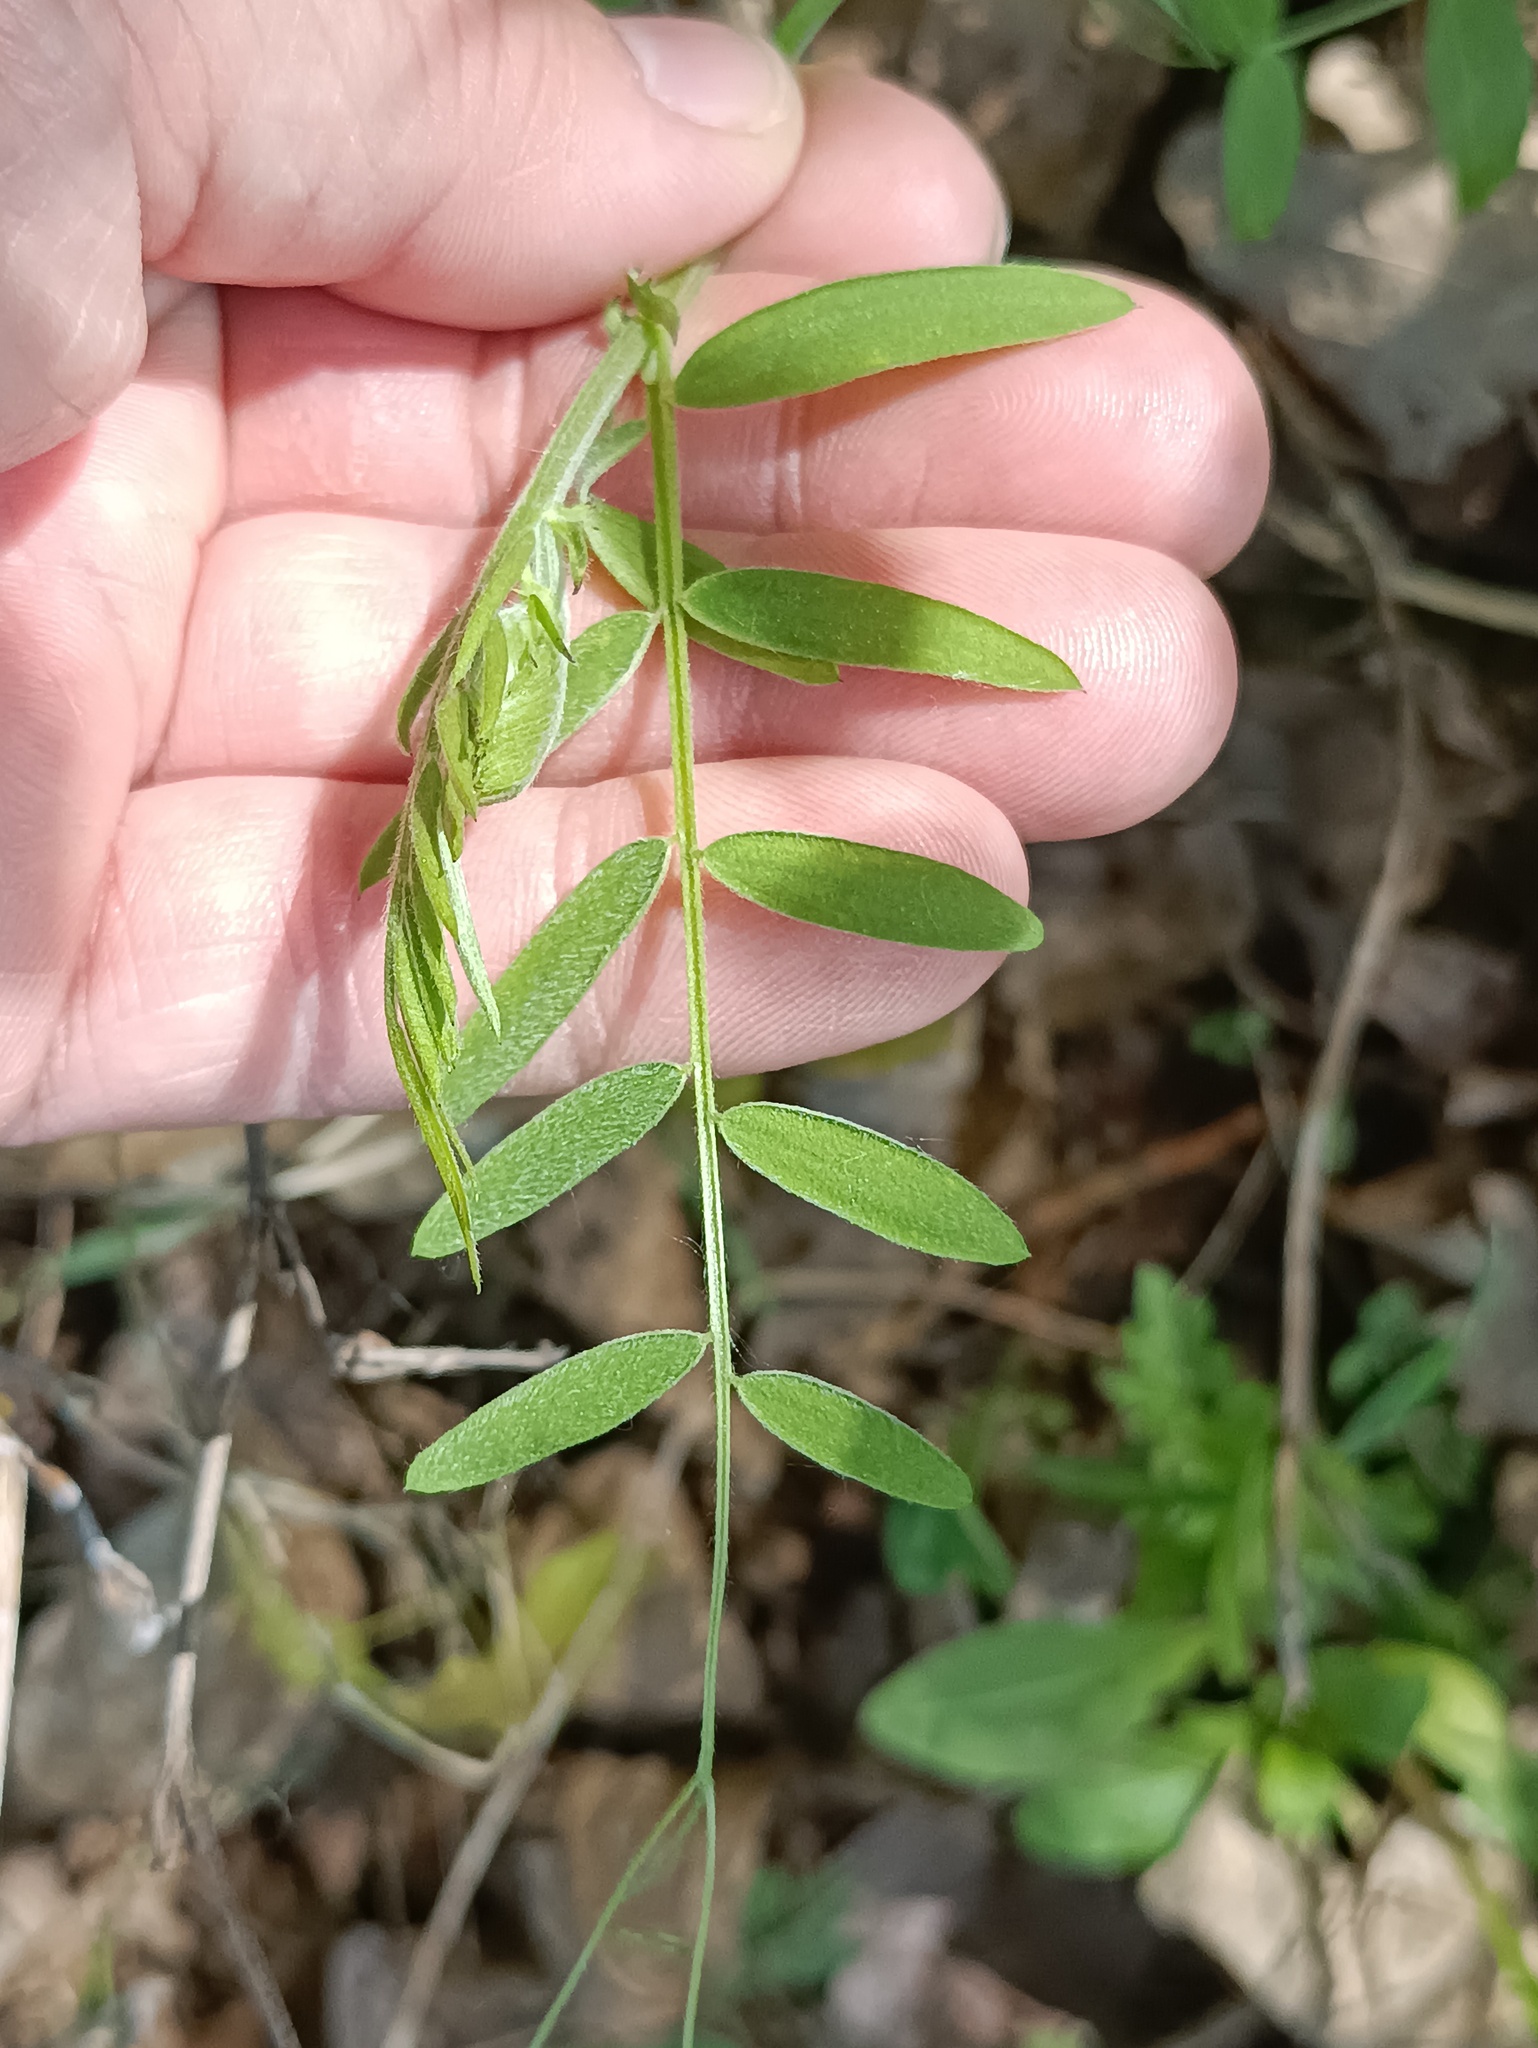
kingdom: Plantae
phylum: Tracheophyta
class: Magnoliopsida
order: Fabales
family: Fabaceae
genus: Vicia
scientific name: Vicia cracca
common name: Bird vetch
